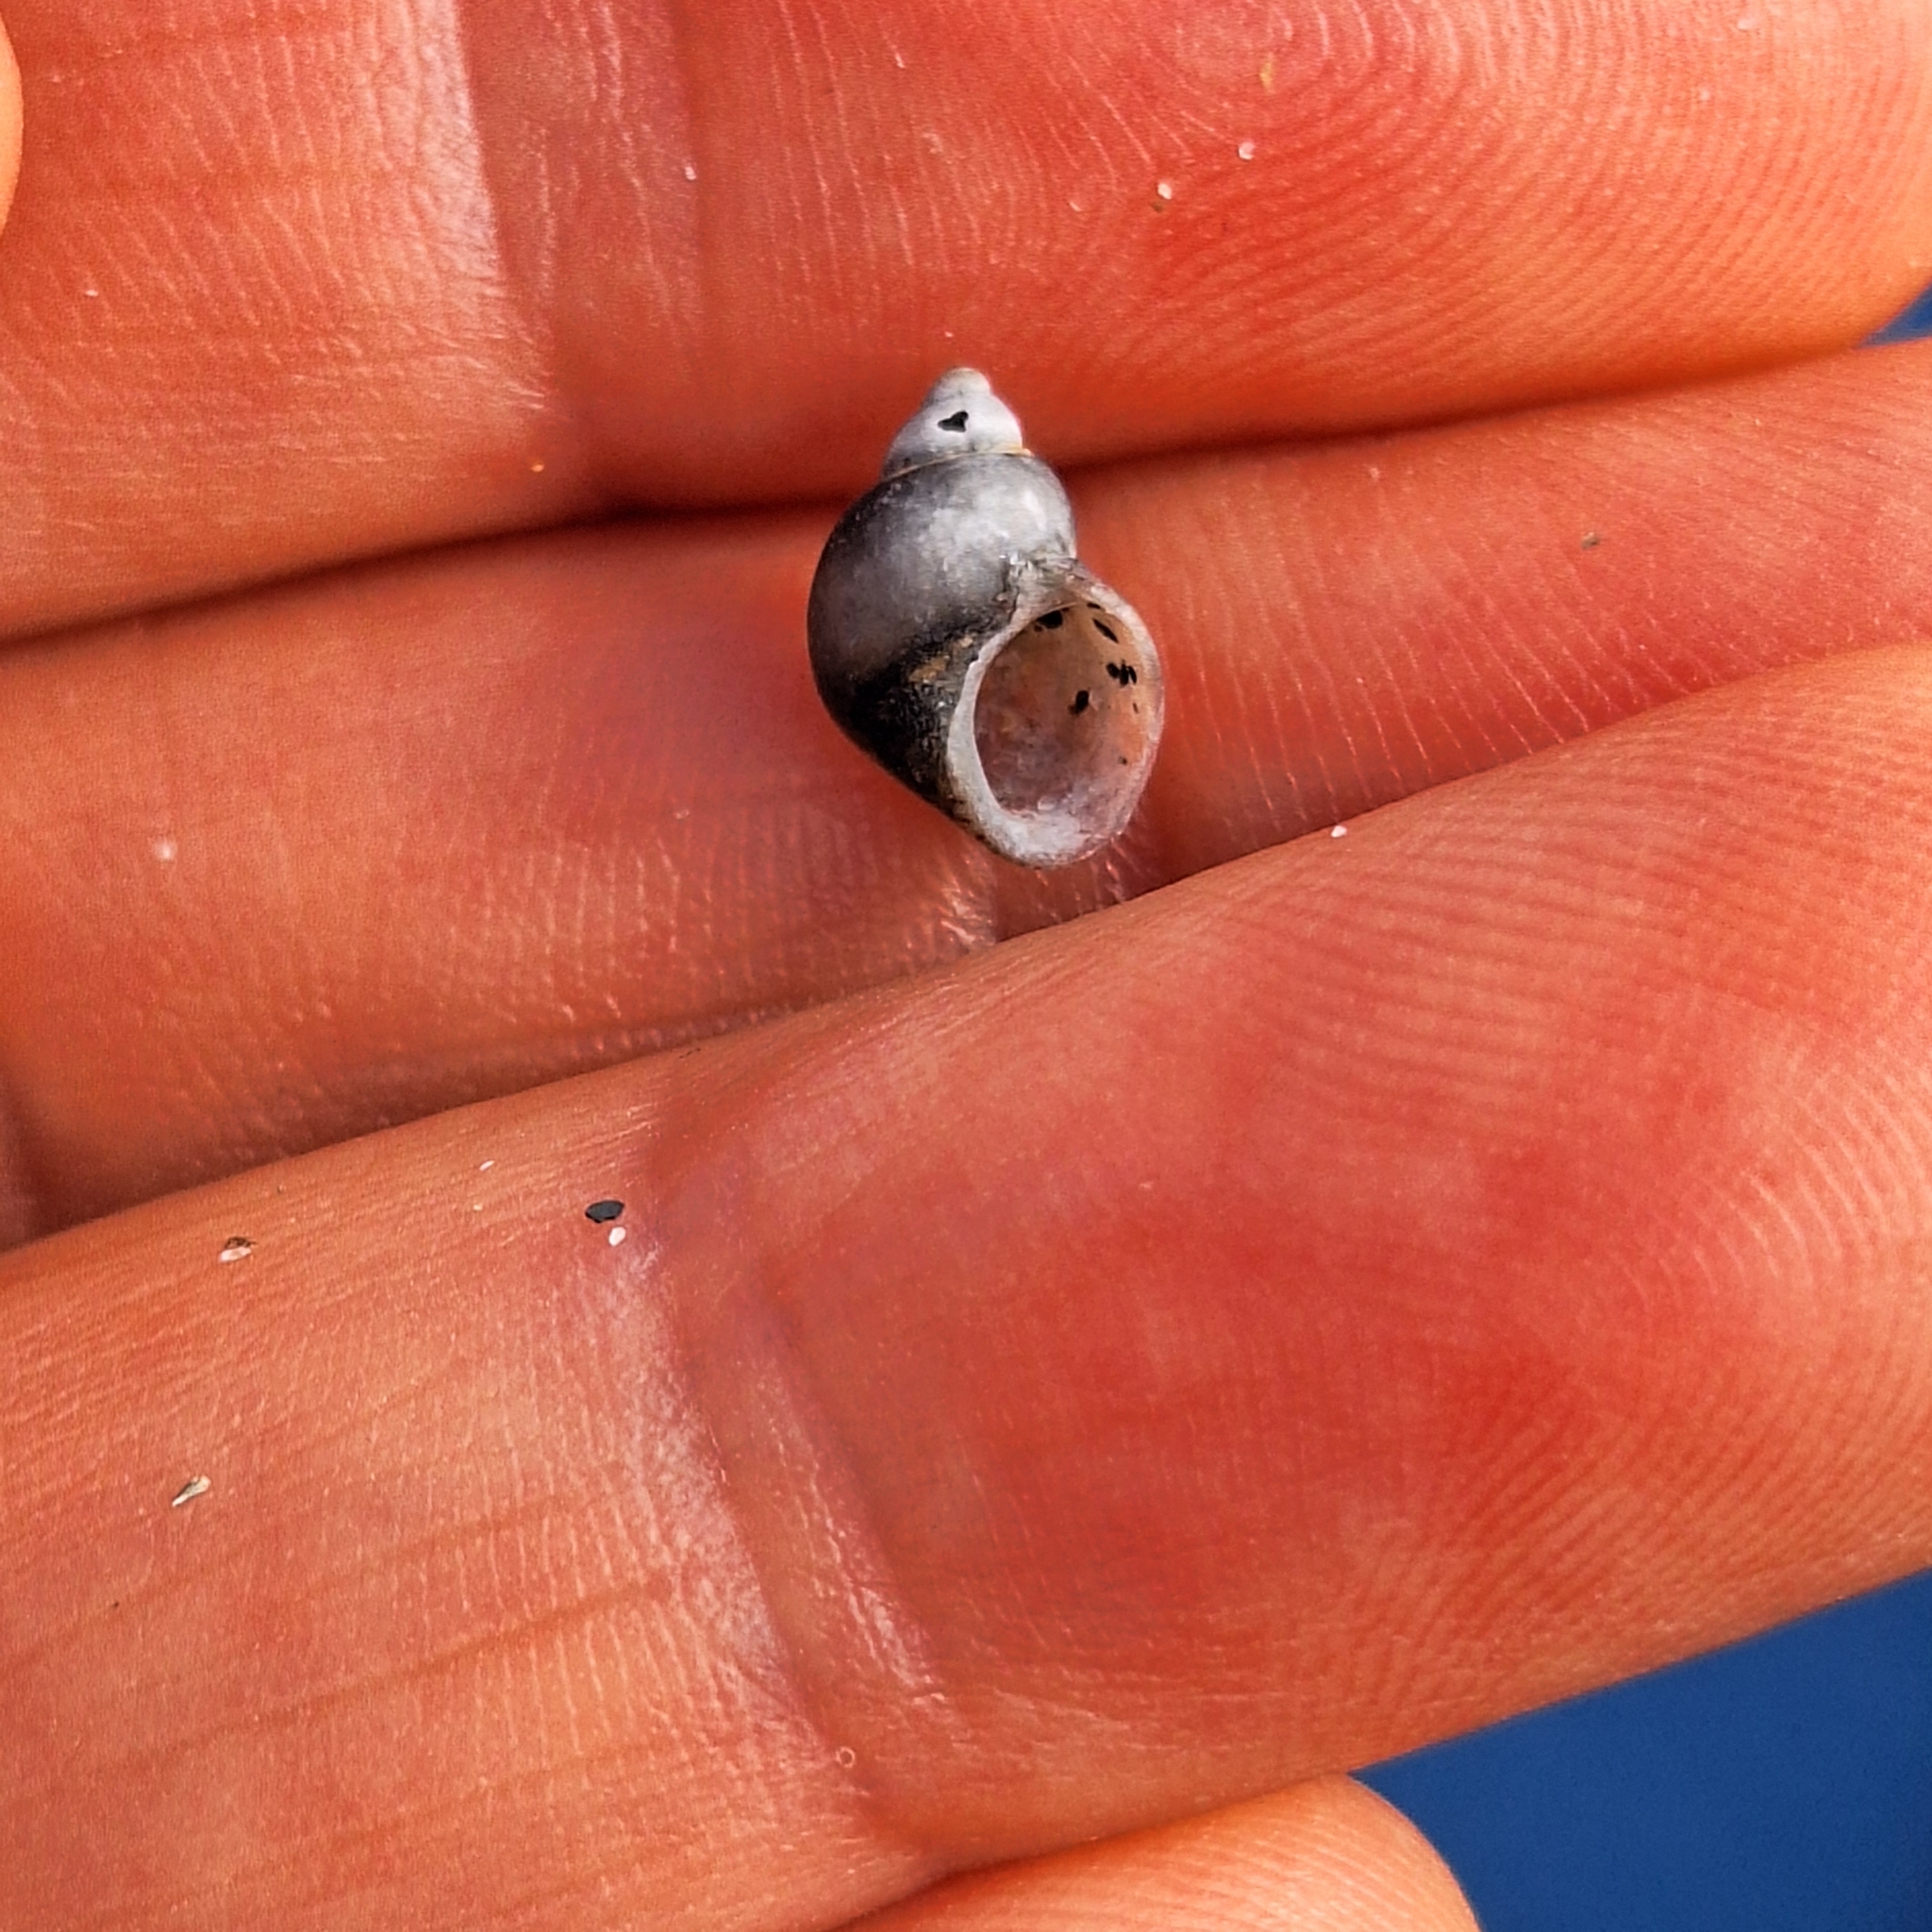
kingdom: Animalia
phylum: Mollusca
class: Gastropoda
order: Trochida
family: Phasianellidae
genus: Tricolia
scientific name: Tricolia pullus
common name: Pheasant shell
